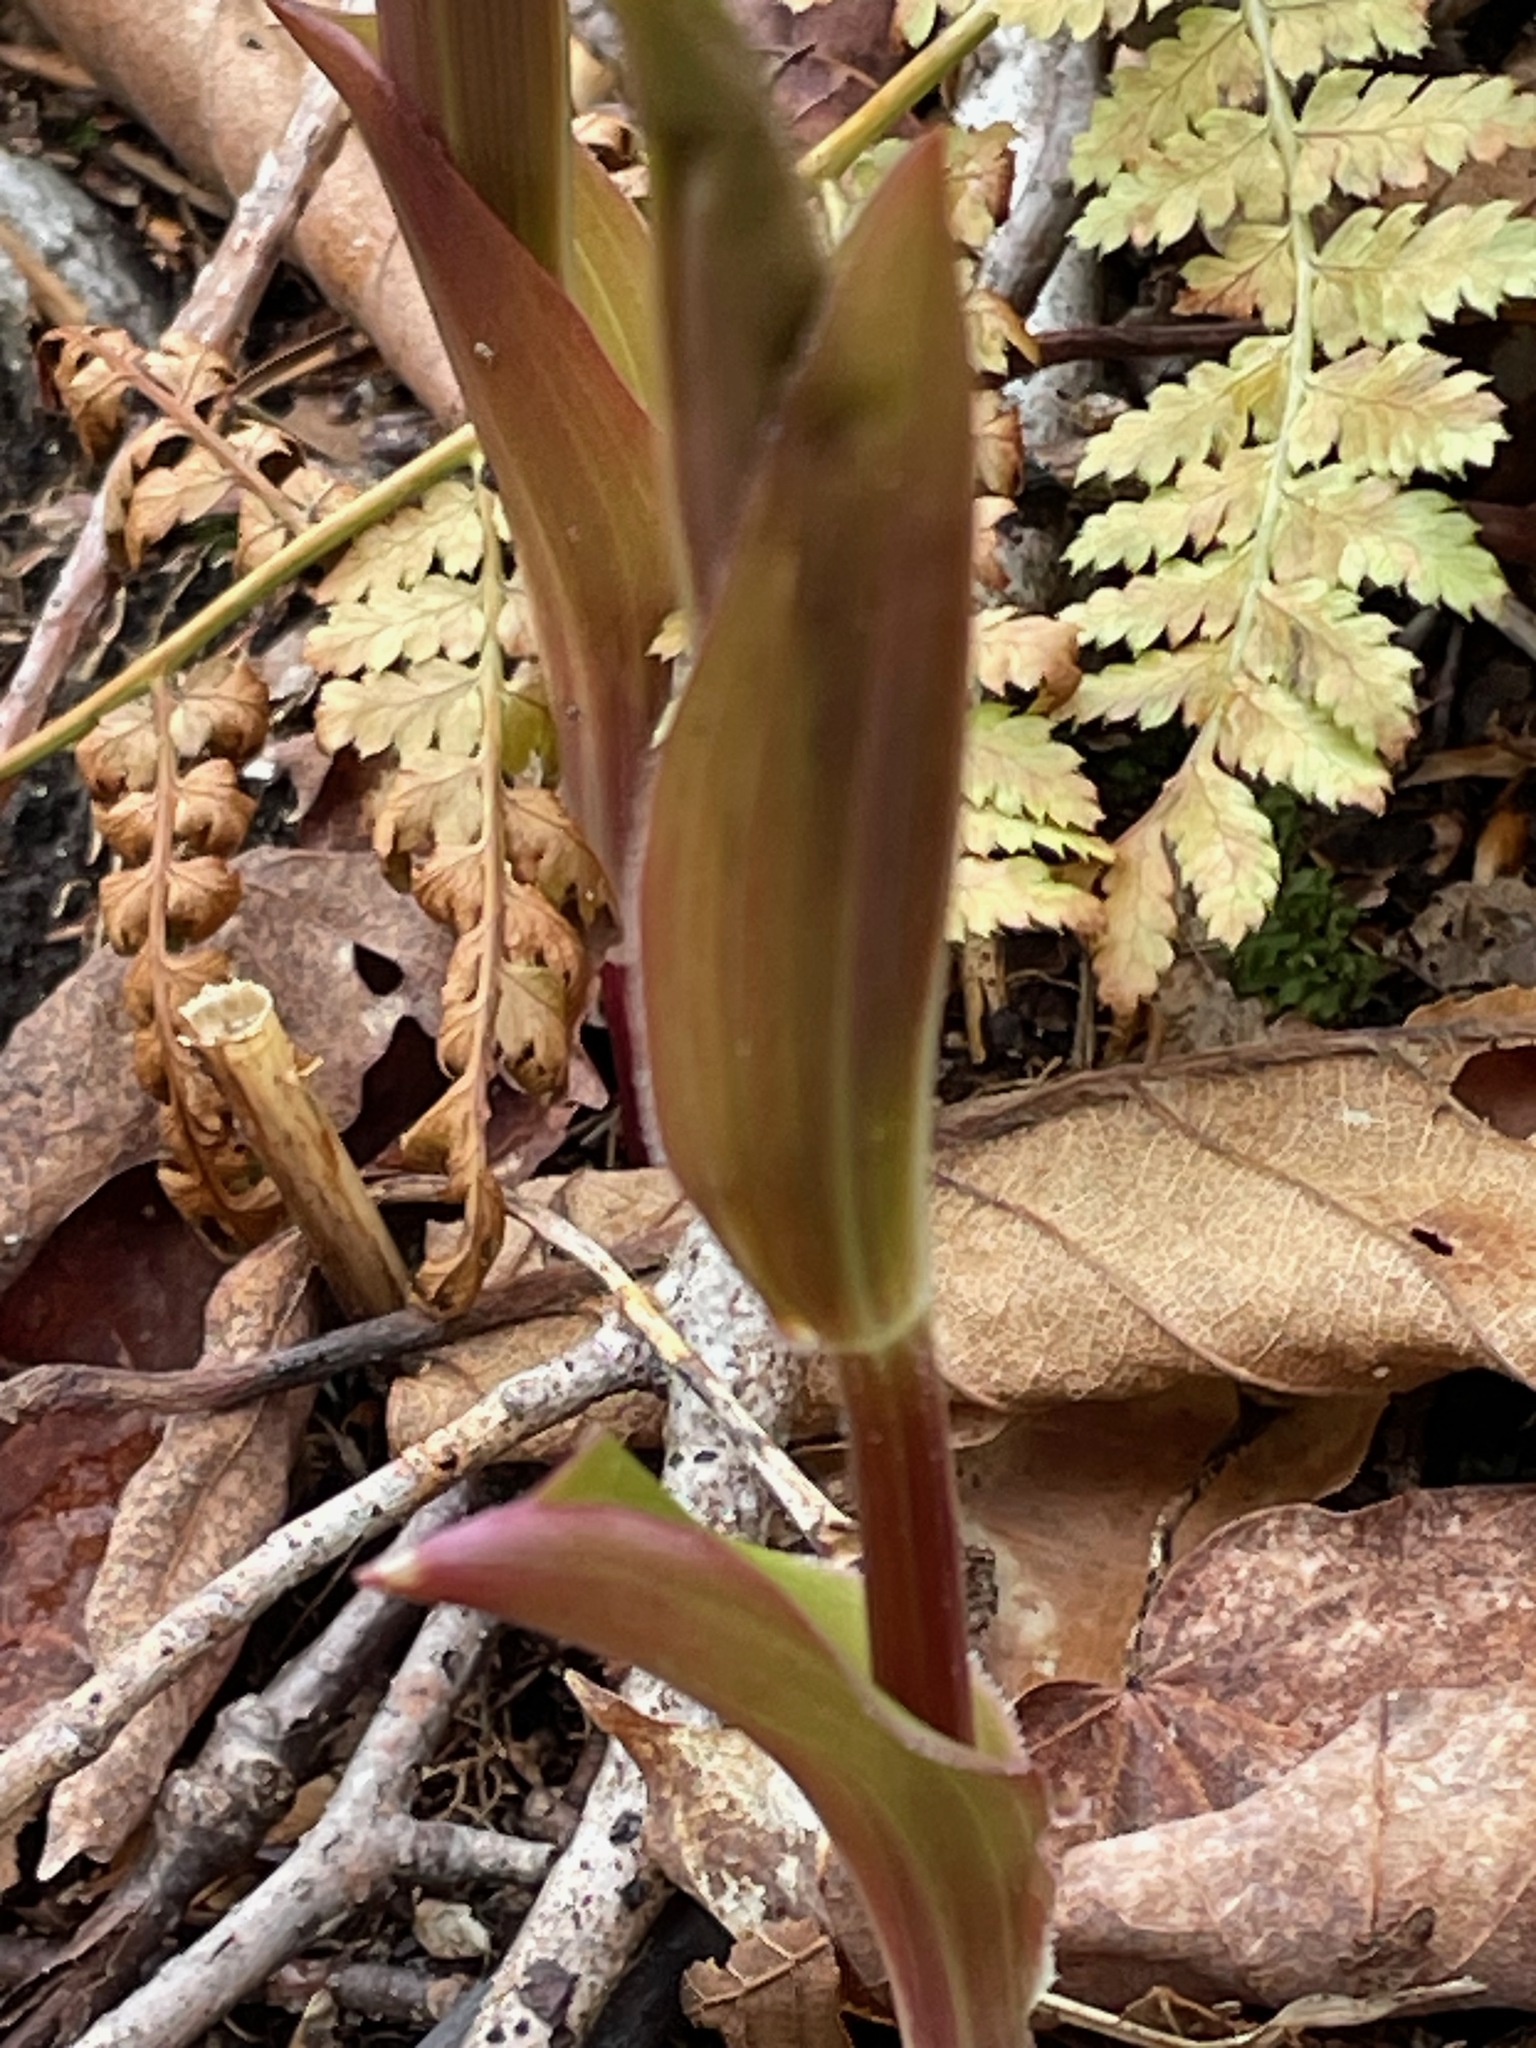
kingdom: Plantae
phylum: Tracheophyta
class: Liliopsida
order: Liliales
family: Liliaceae
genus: Streptopus
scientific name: Streptopus lanceolatus
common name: Rose mandarin
